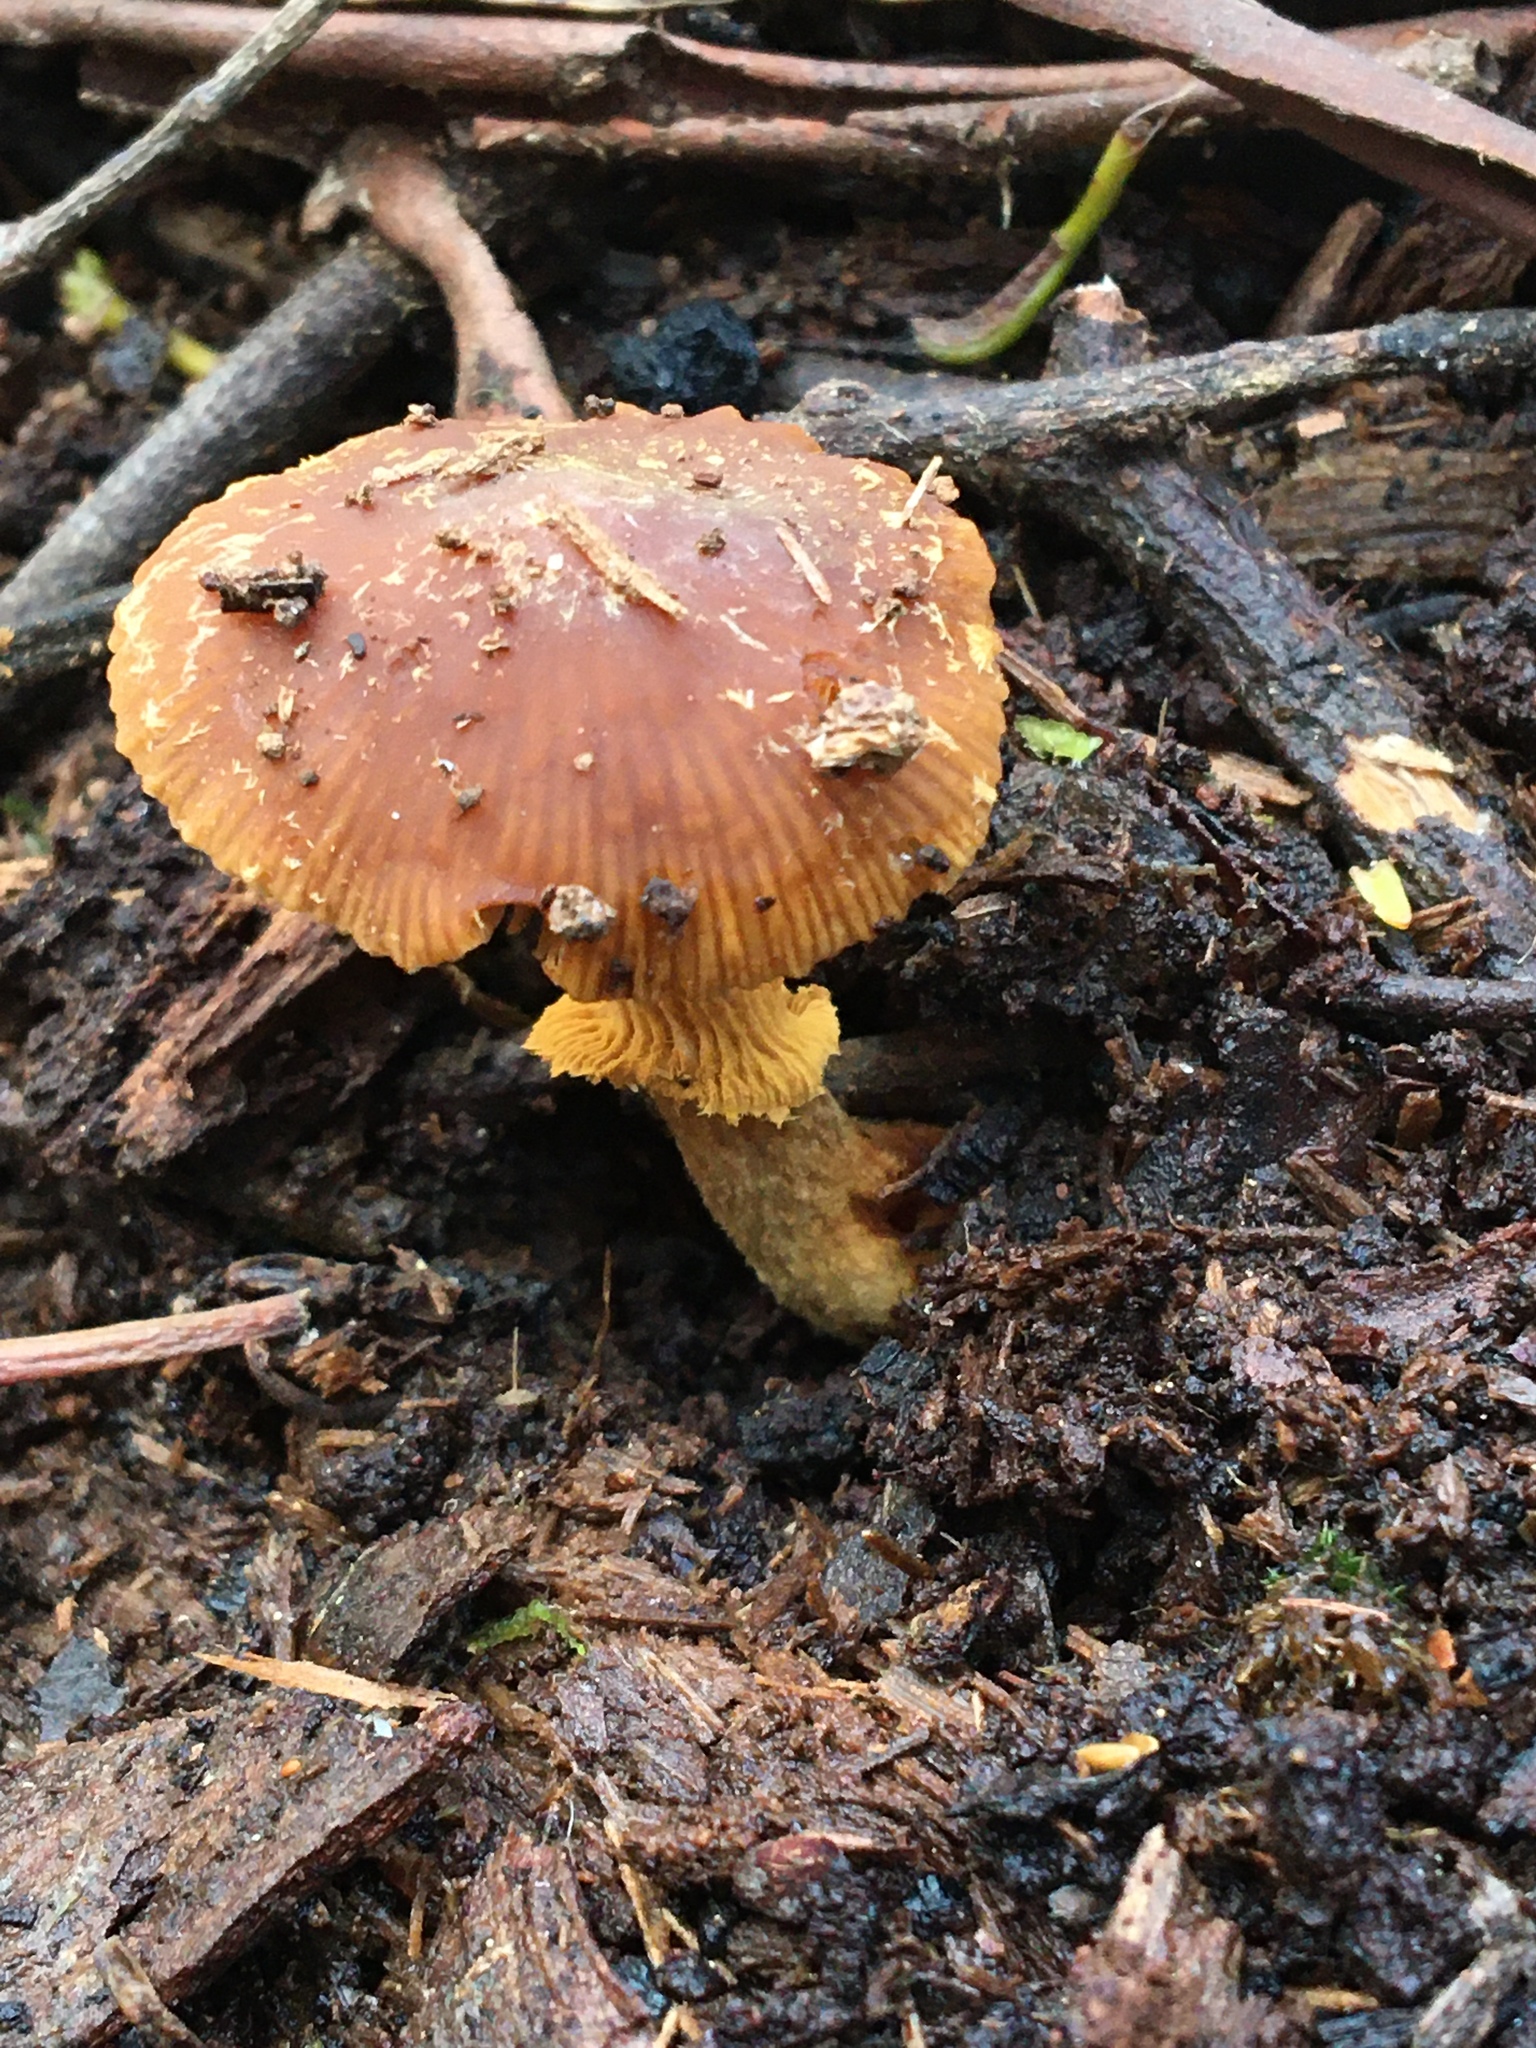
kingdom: Fungi
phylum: Basidiomycota
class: Agaricomycetes
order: Agaricales
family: Bolbitiaceae
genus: Descolea
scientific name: Descolea recedens
